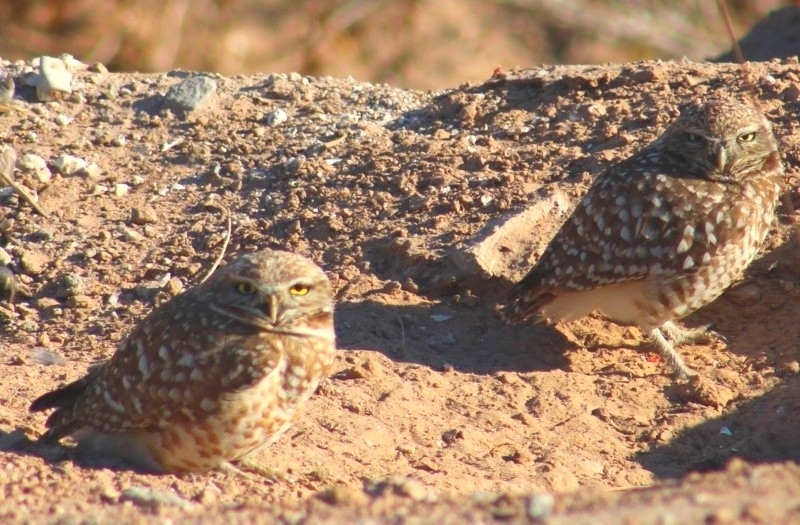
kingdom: Animalia
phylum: Chordata
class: Aves
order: Strigiformes
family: Strigidae
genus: Athene
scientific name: Athene cunicularia
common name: Burrowing owl
